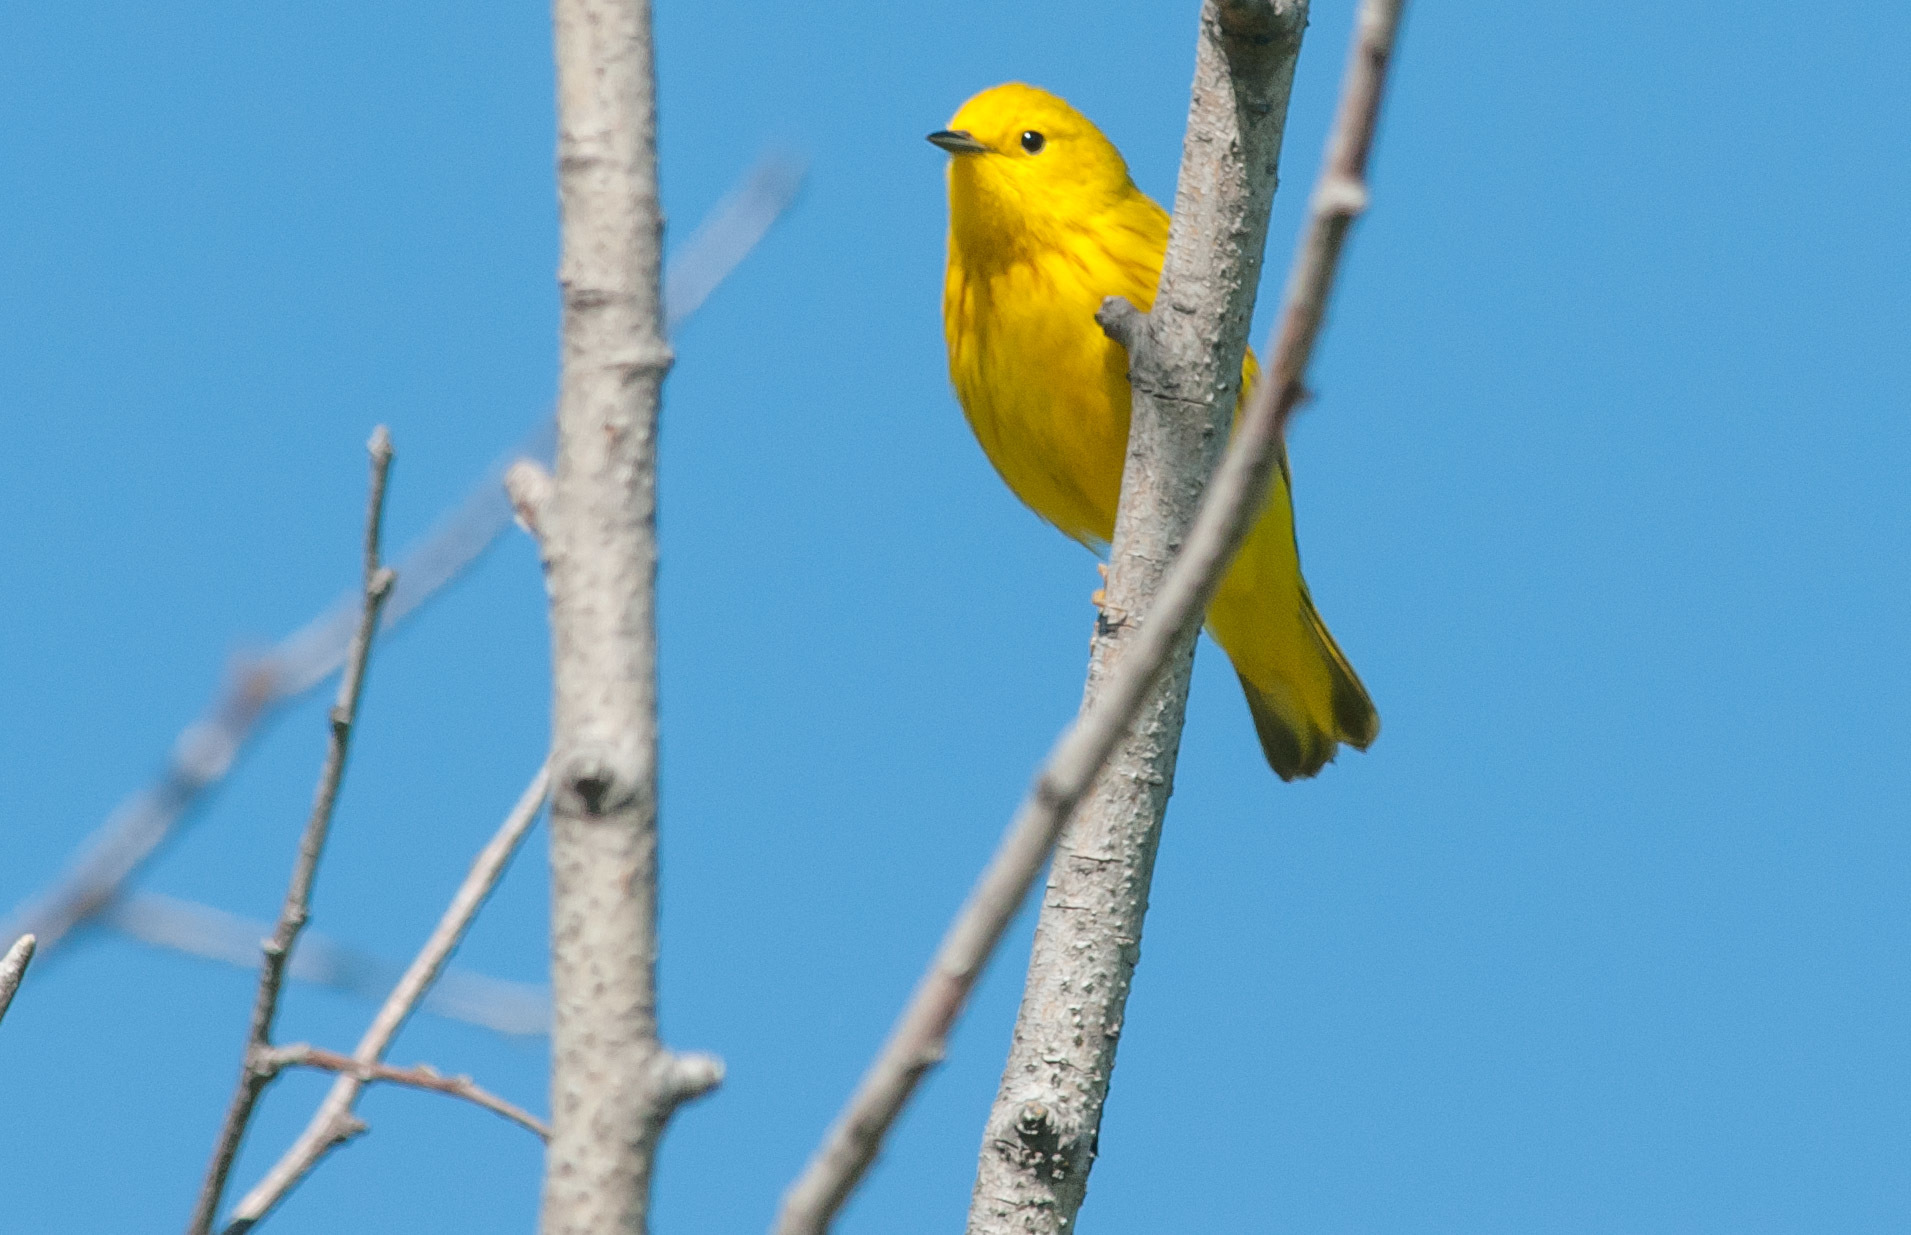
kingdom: Animalia
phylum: Chordata
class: Aves
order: Passeriformes
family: Parulidae
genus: Setophaga
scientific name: Setophaga petechia
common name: Yellow warbler
